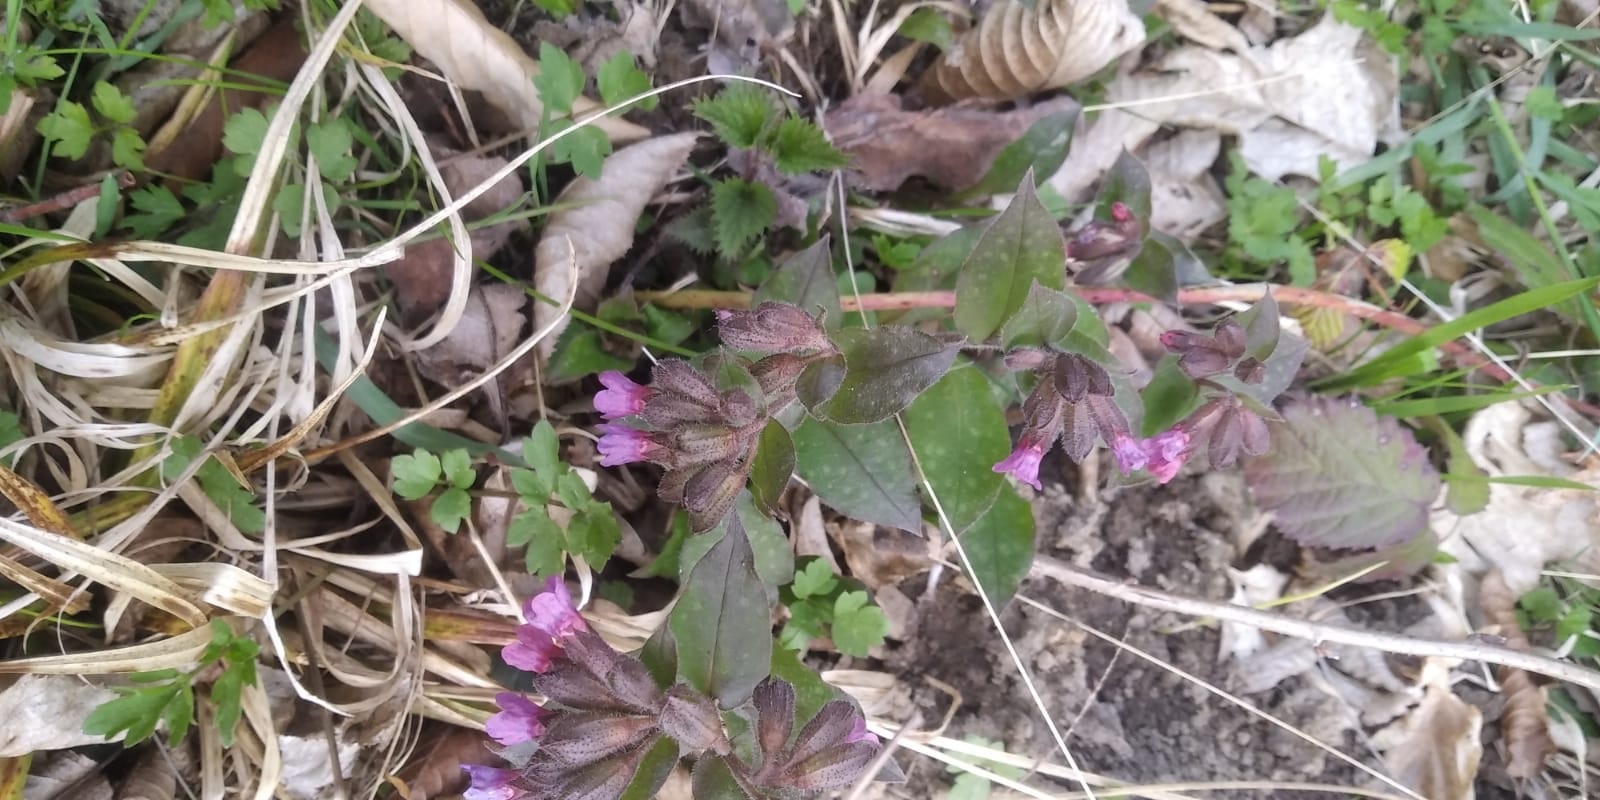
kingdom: Plantae
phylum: Tracheophyta
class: Magnoliopsida
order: Boraginales
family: Boraginaceae
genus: Pulmonaria
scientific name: Pulmonaria officinalis
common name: Lungwort
